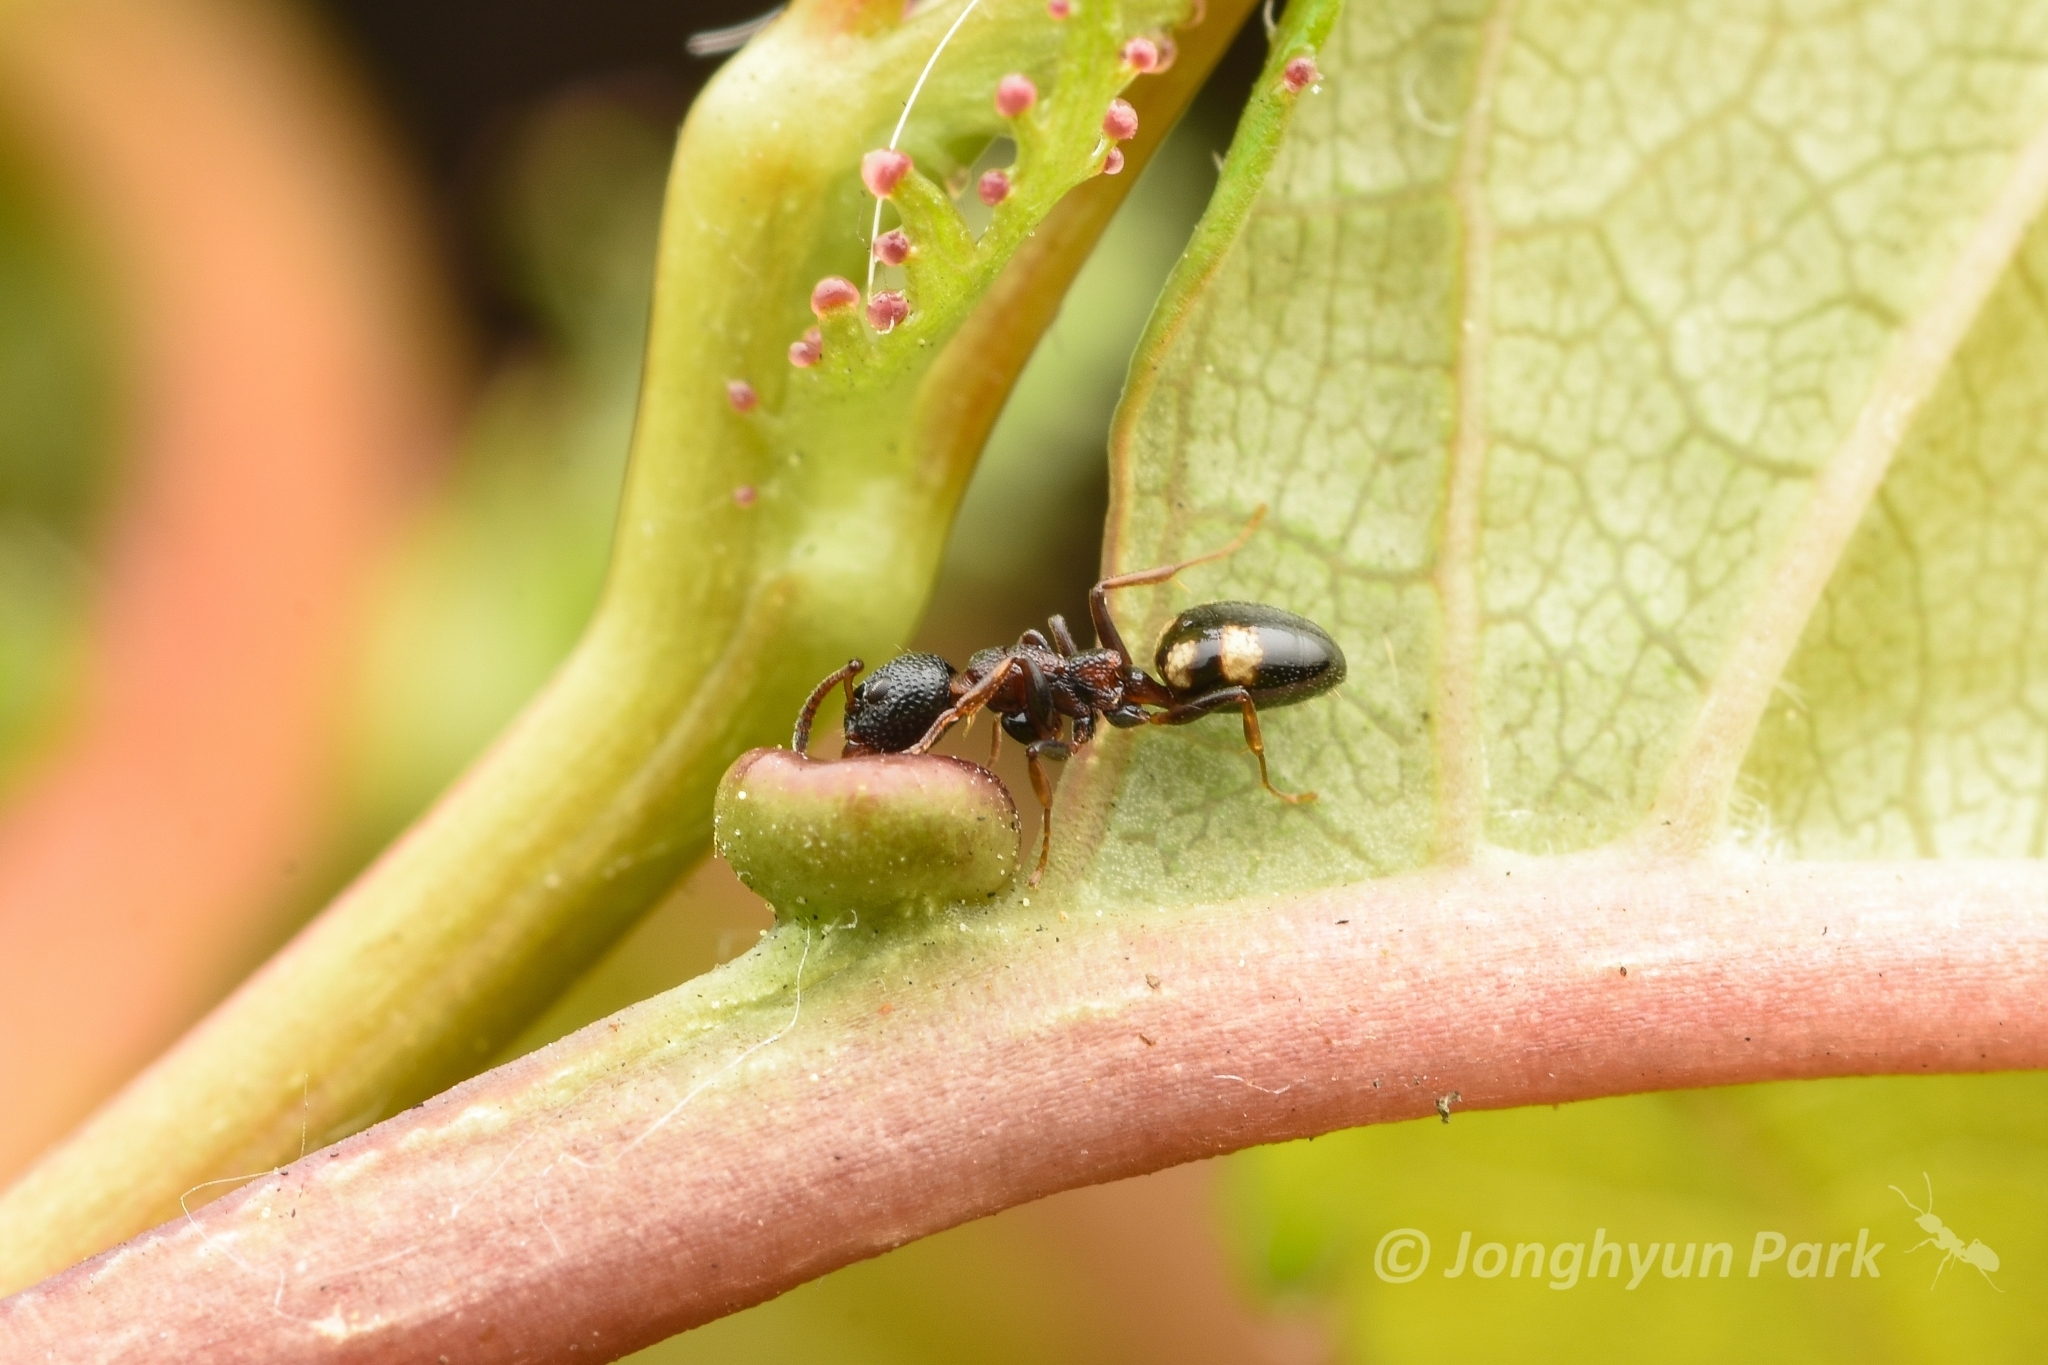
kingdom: Animalia
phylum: Arthropoda
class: Insecta
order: Hymenoptera
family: Formicidae
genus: Dolichoderus
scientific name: Dolichoderus sibiricus
